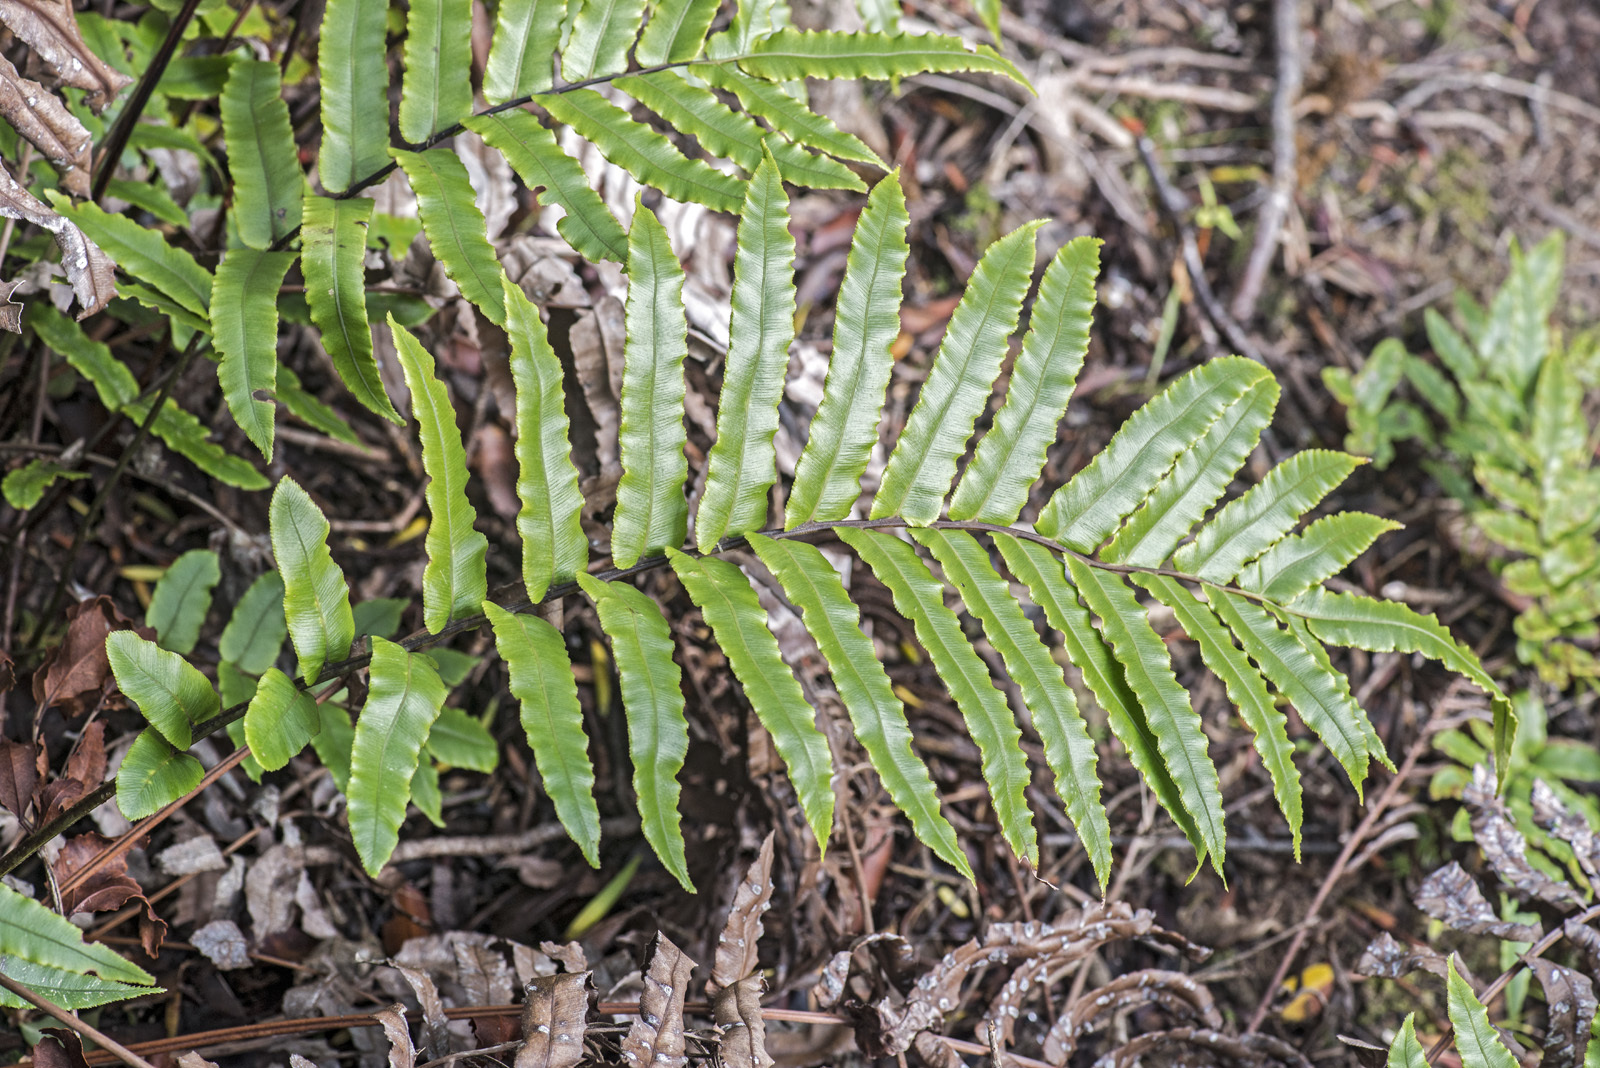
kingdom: Plantae
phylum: Tracheophyta
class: Polypodiopsida
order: Polypodiales
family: Blechnaceae
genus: Blechnum
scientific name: Blechnum
